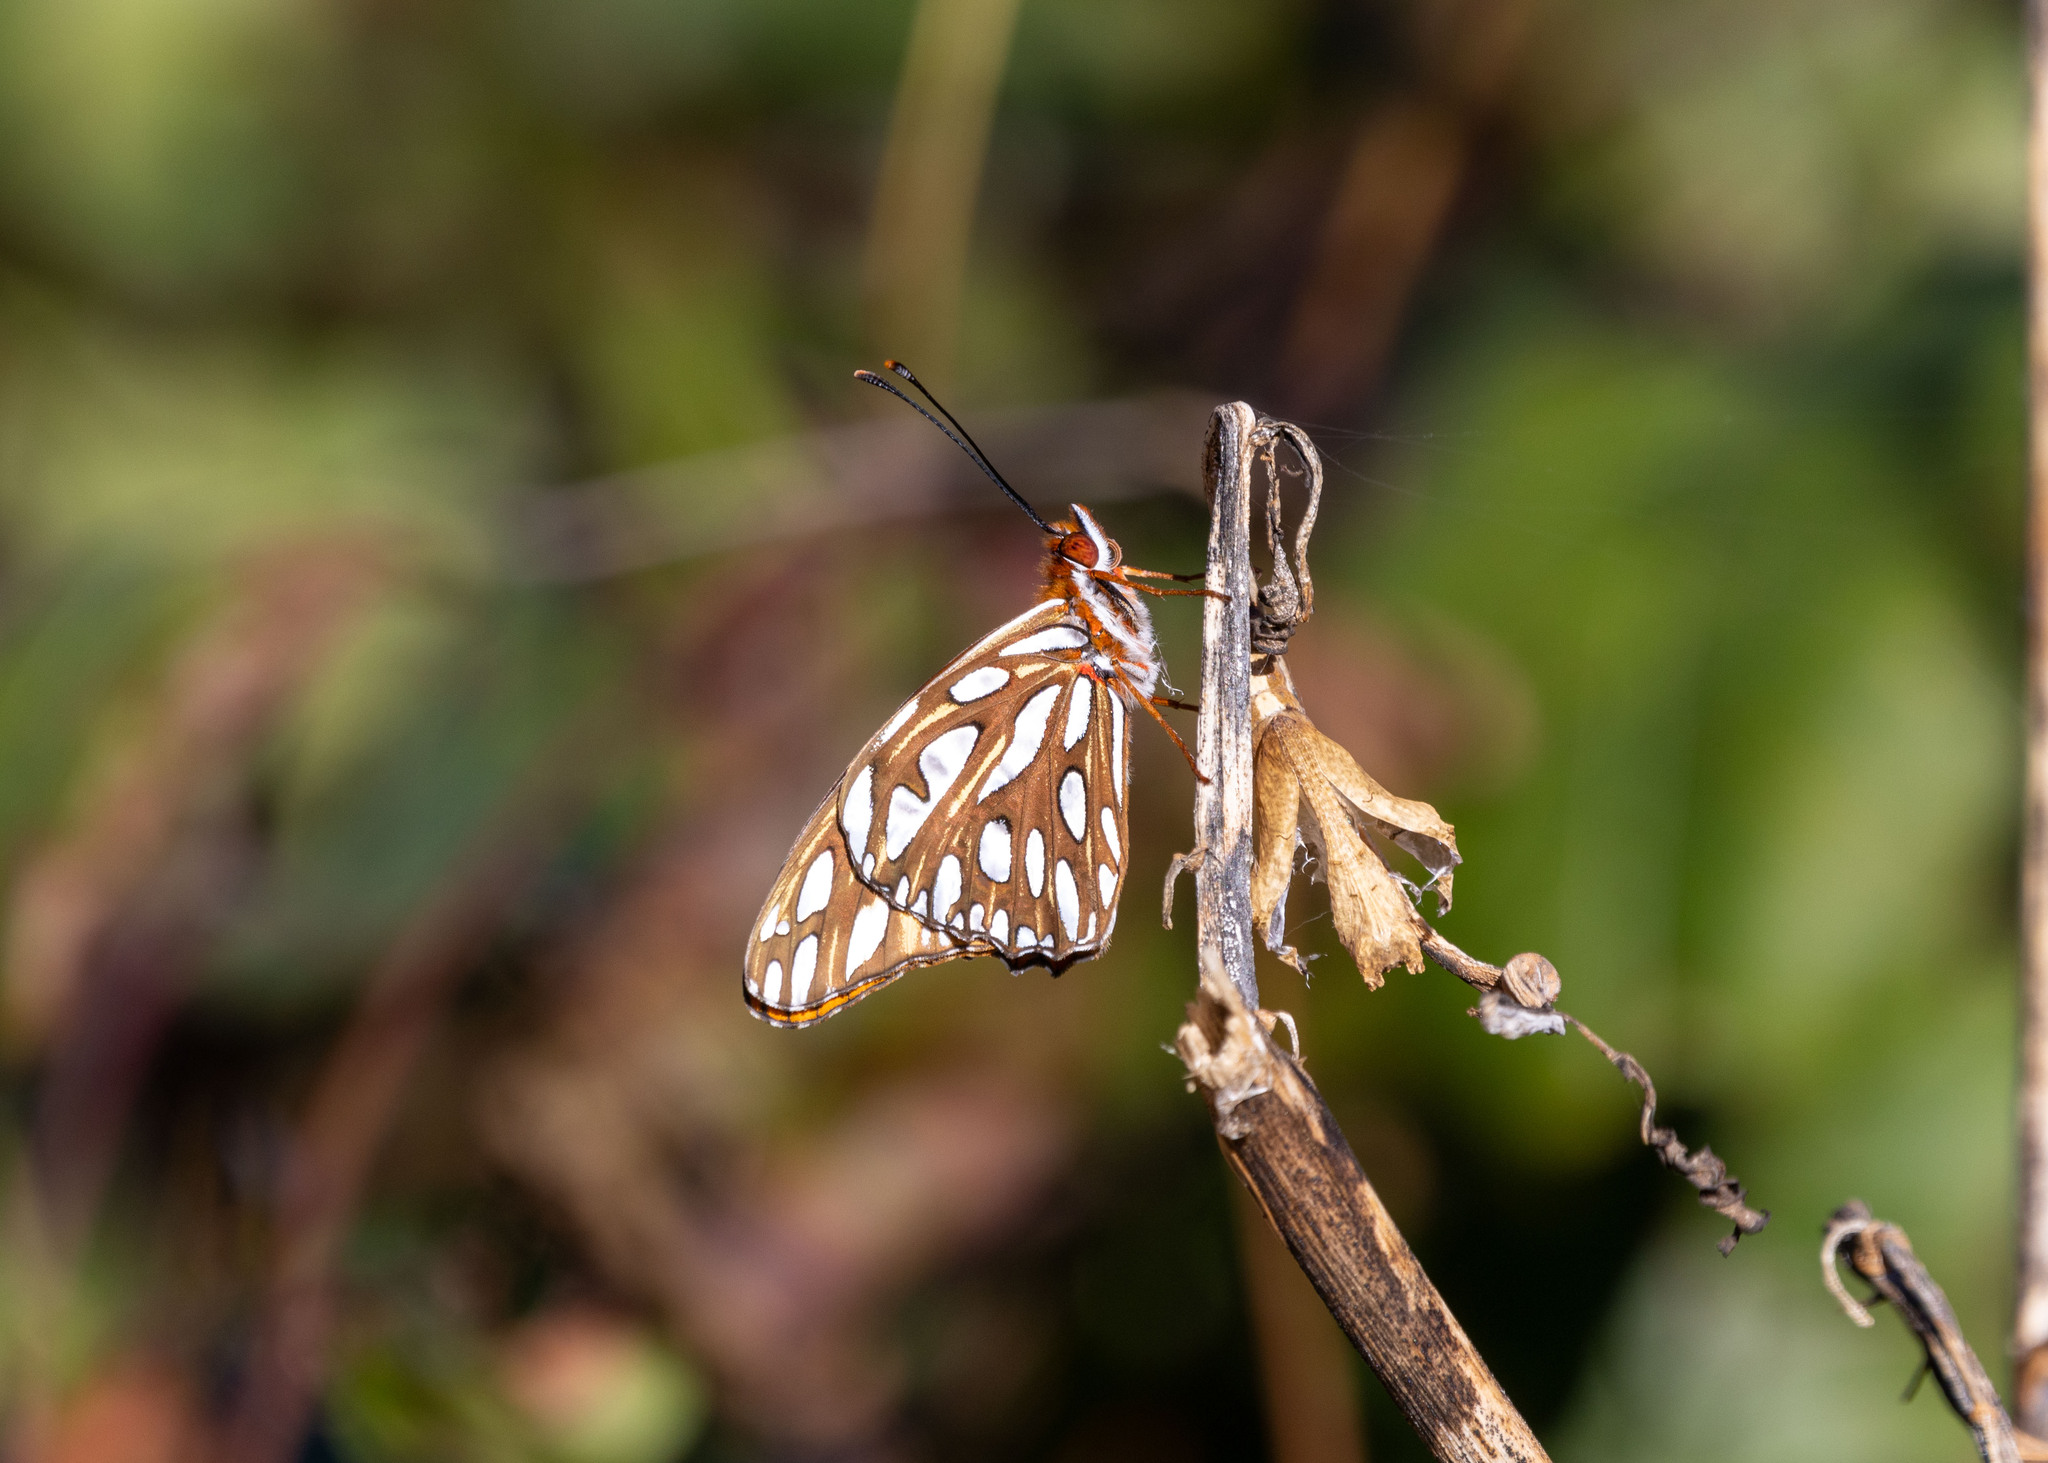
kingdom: Animalia
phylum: Arthropoda
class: Insecta
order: Lepidoptera
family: Nymphalidae
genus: Dione
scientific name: Dione vanillae
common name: Gulf fritillary
